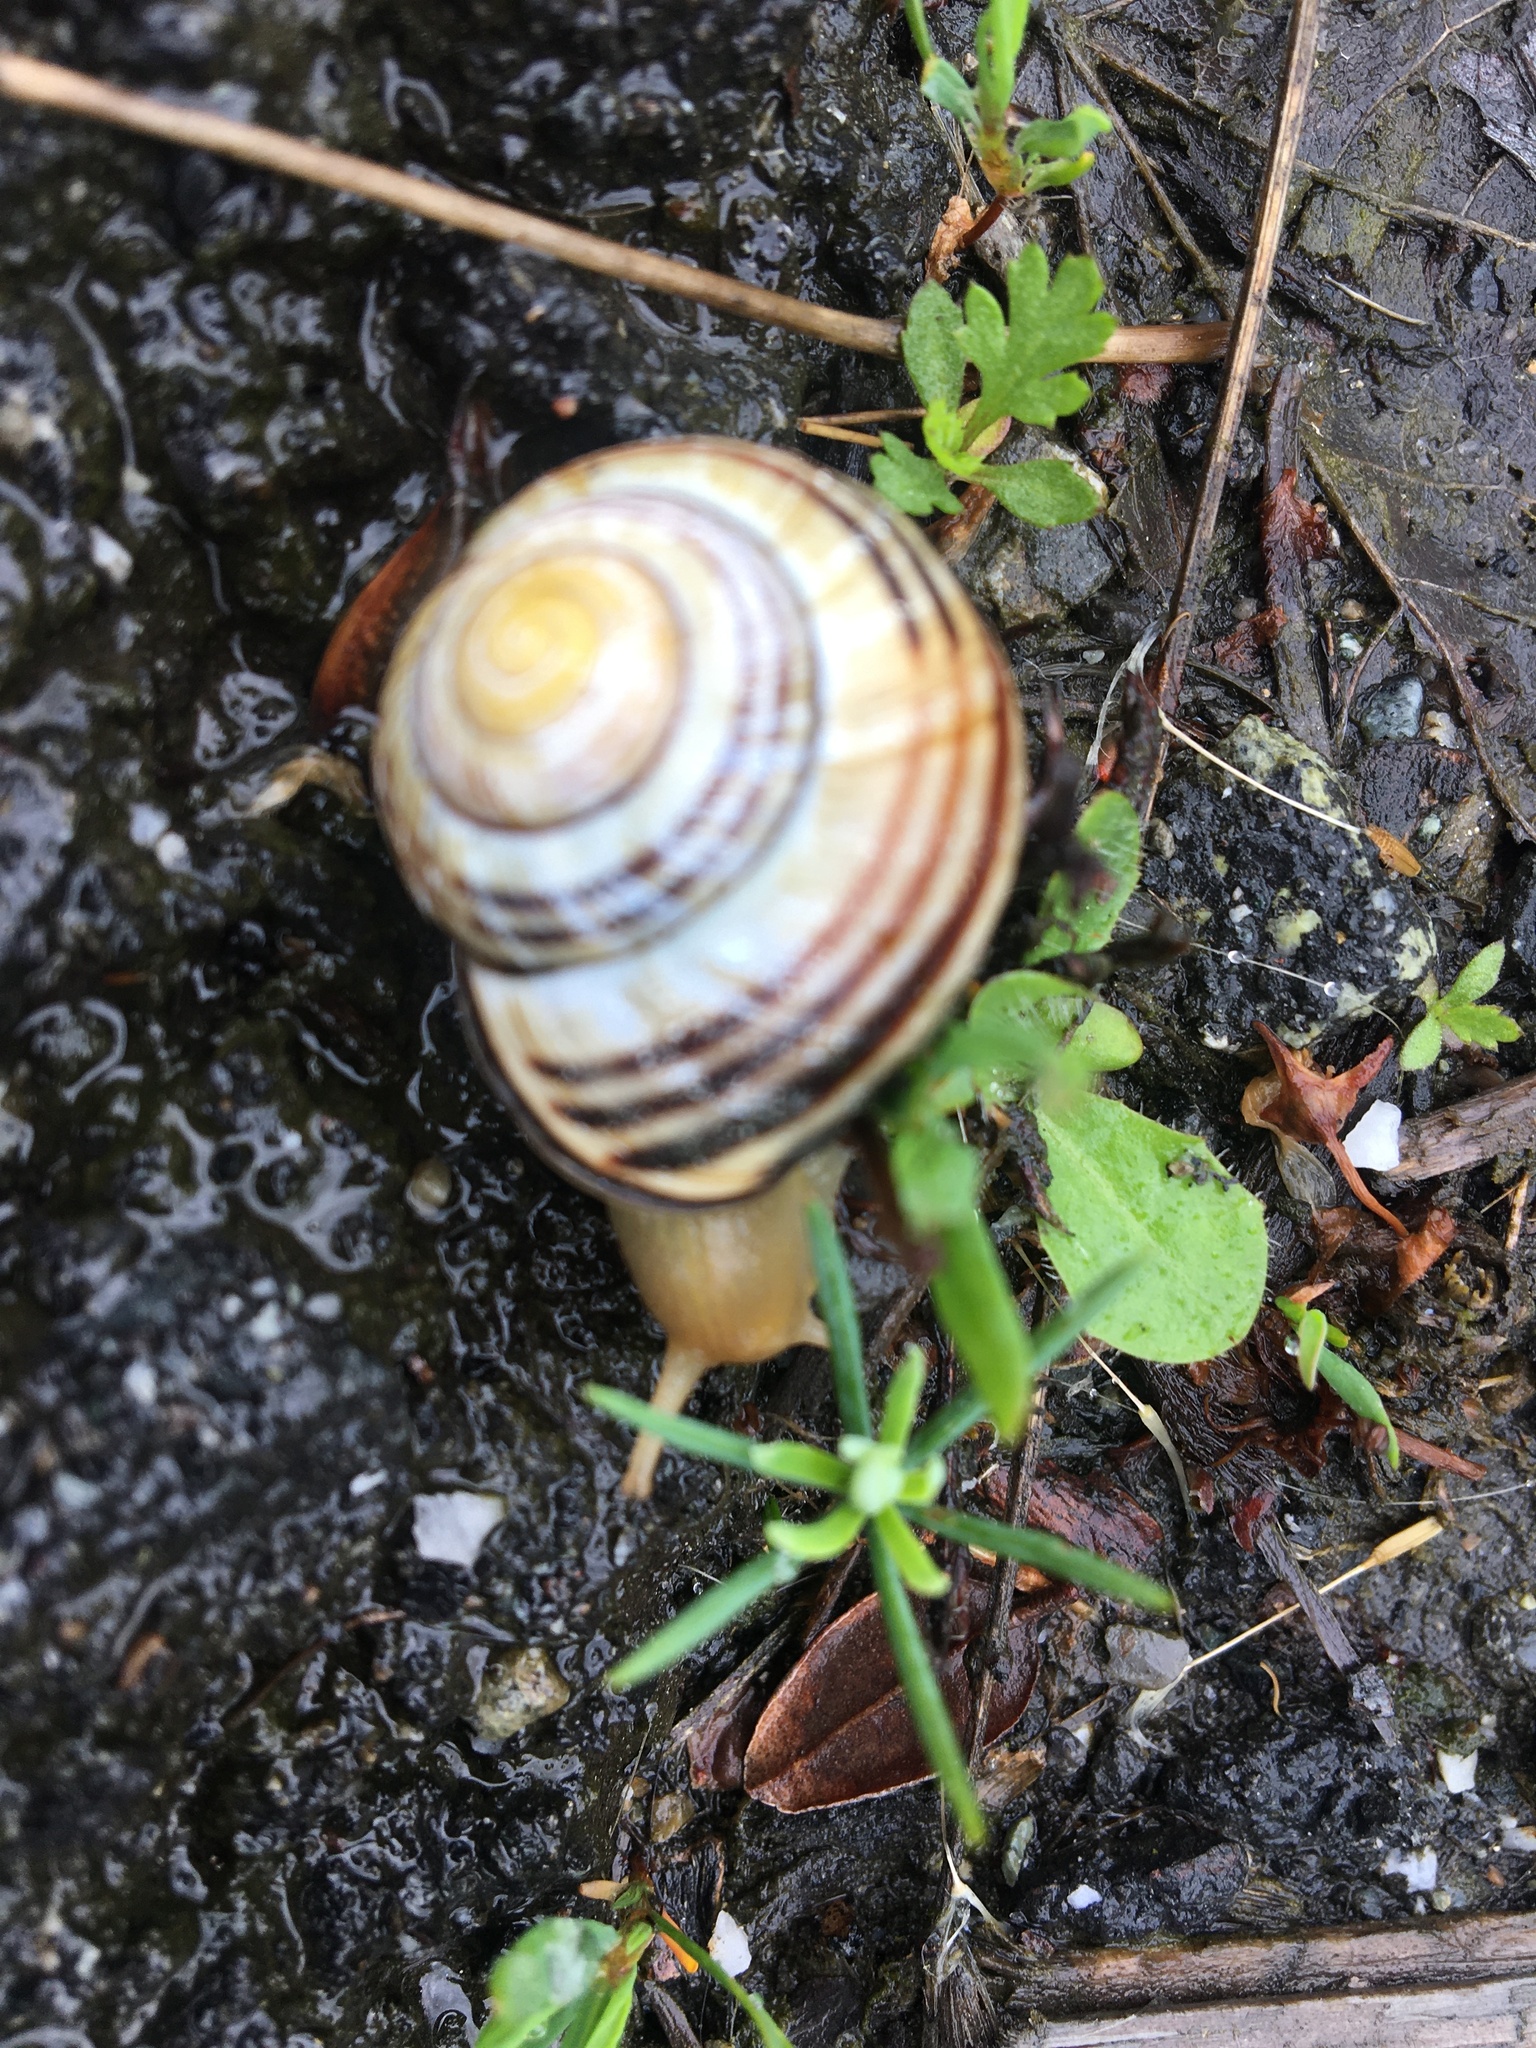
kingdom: Animalia
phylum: Mollusca
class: Gastropoda
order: Stylommatophora
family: Helicidae
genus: Cepaea
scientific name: Cepaea nemoralis
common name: Grovesnail
